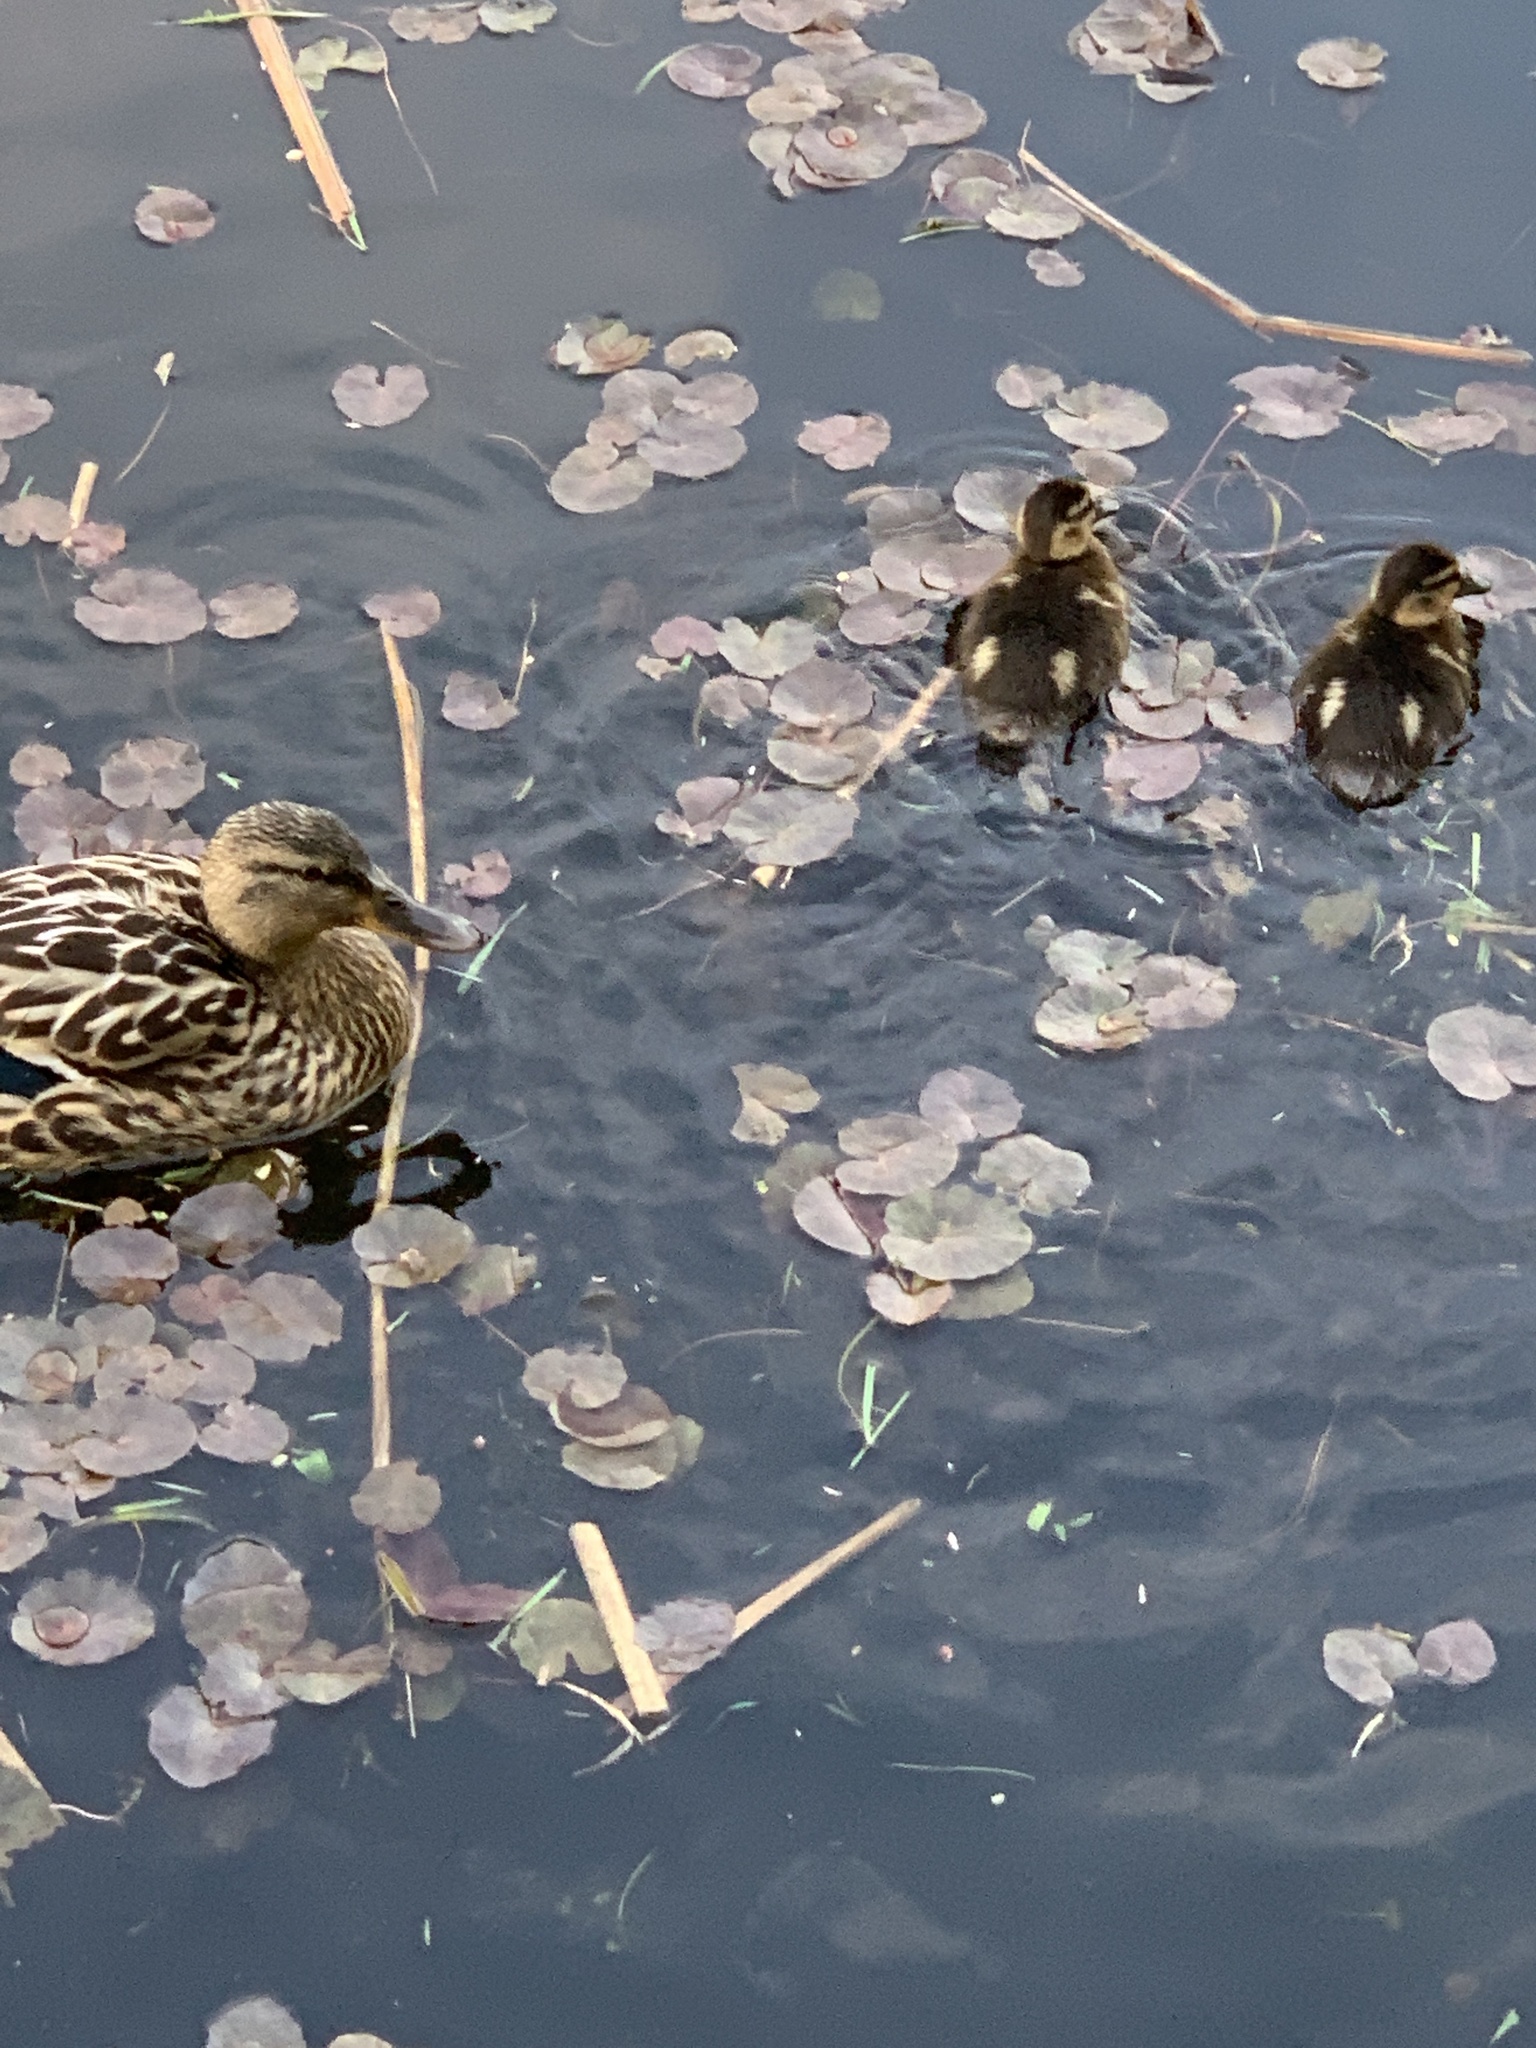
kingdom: Animalia
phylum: Chordata
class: Aves
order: Anseriformes
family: Anatidae
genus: Anas
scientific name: Anas platyrhynchos
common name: Mallard
